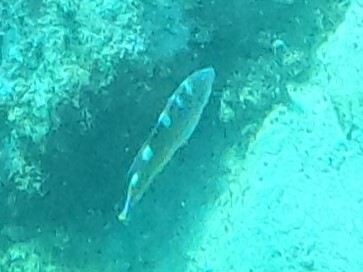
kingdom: Animalia
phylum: Chordata
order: Perciformes
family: Labridae
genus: Halichoeres
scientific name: Halichoeres radiatus
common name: Puddingwife
